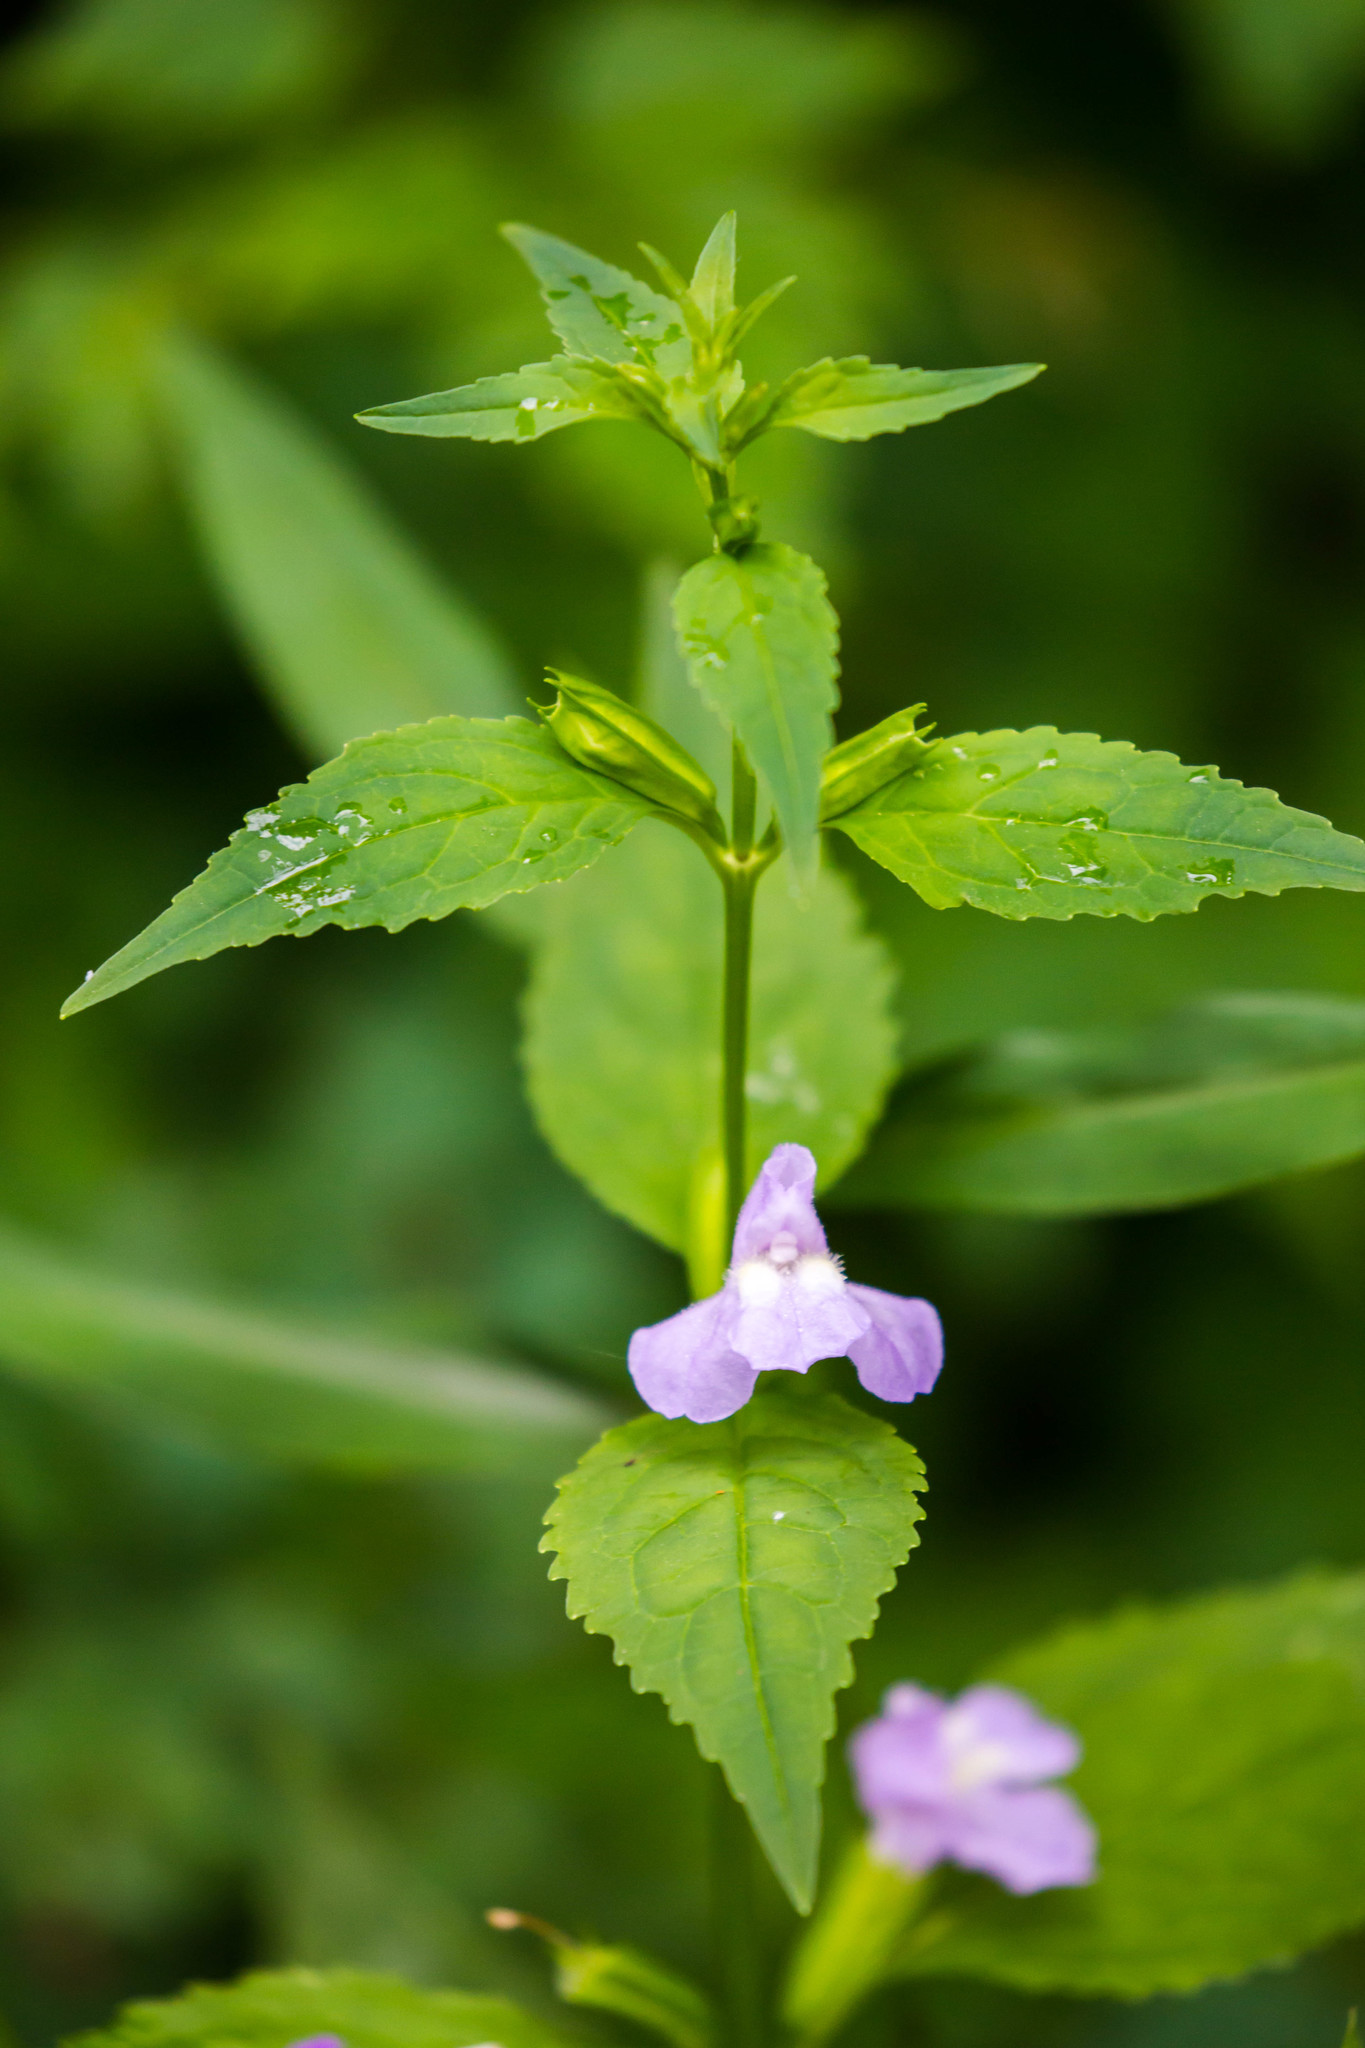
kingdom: Plantae
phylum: Tracheophyta
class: Magnoliopsida
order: Lamiales
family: Phrymaceae
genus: Mimulus
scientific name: Mimulus alatus
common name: Sharp-wing monkey-flower
